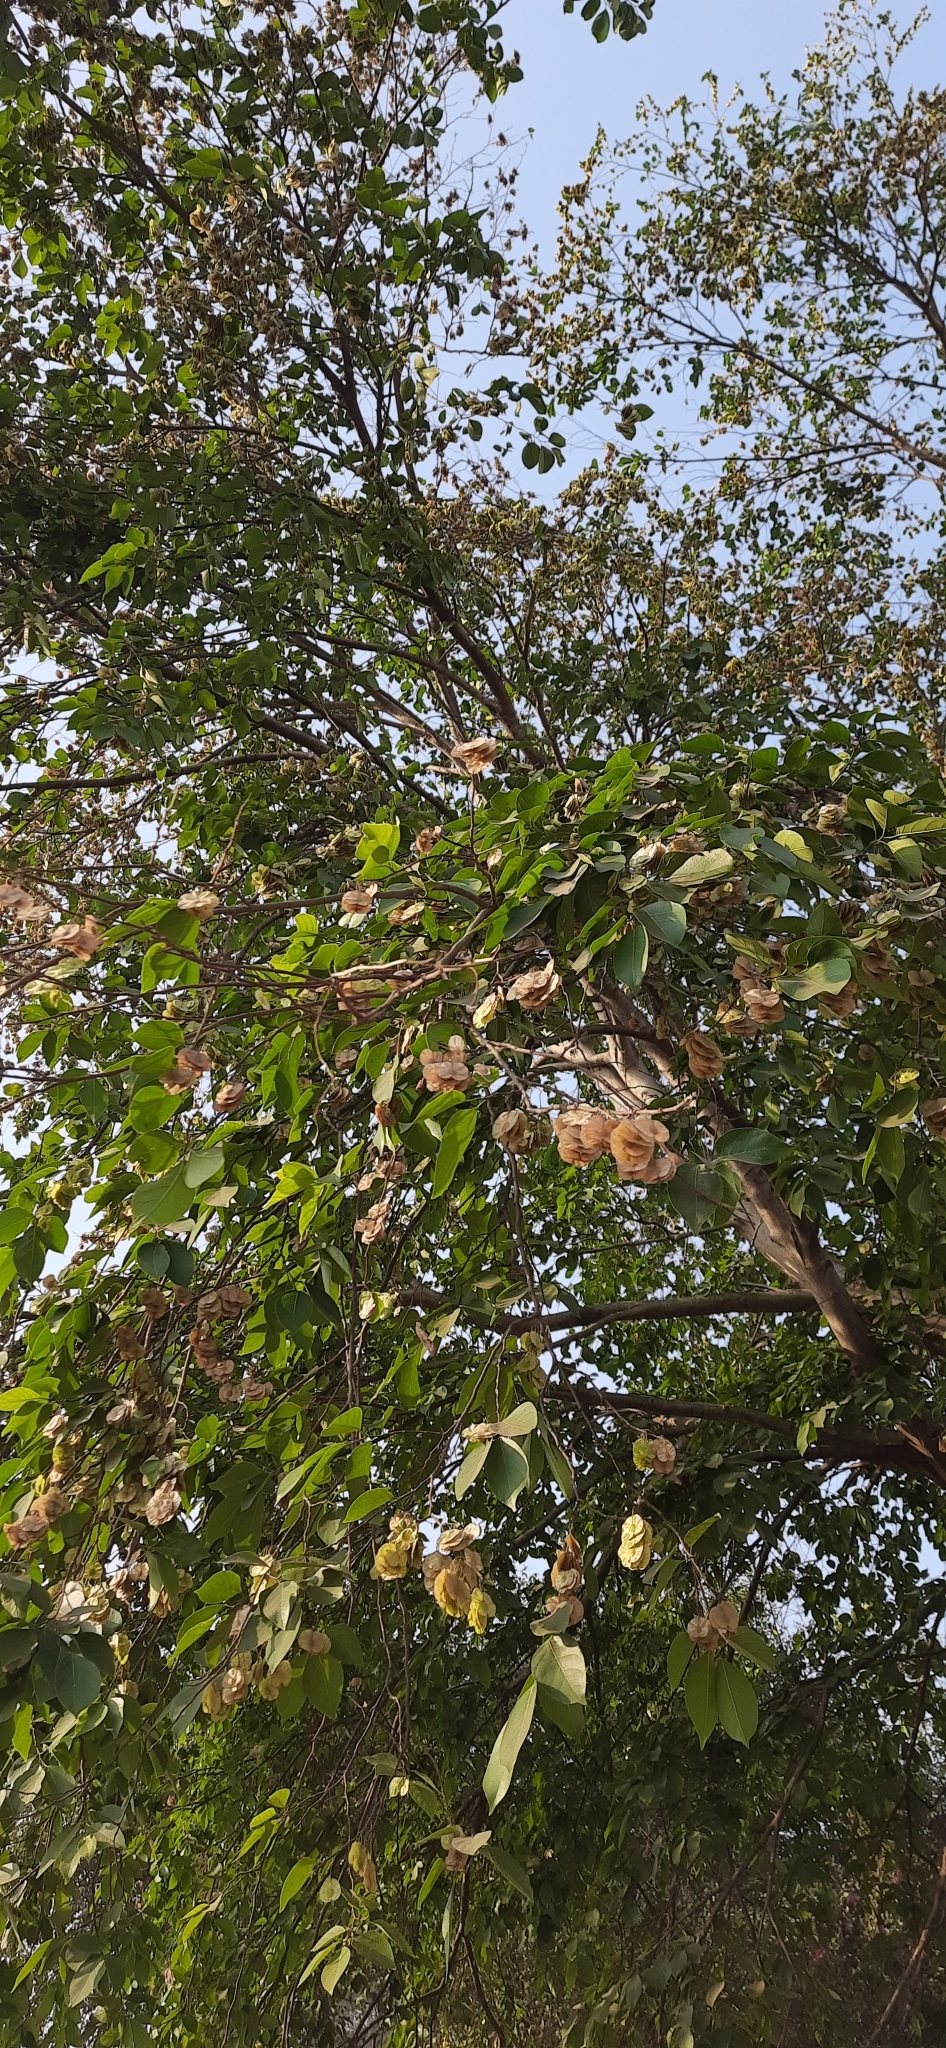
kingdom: Plantae
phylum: Tracheophyta
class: Magnoliopsida
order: Rosales
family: Ulmaceae
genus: Holoptelea
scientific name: Holoptelea integrifolia
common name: Indian-elm
